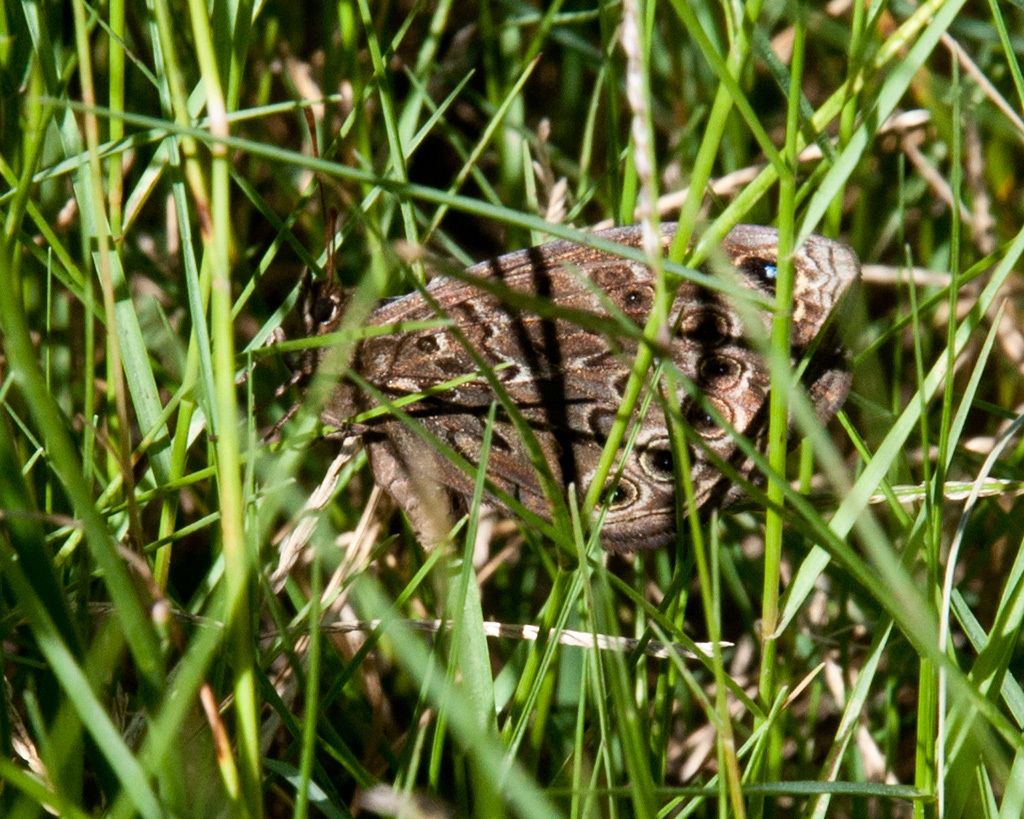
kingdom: Animalia
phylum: Arthropoda
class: Insecta
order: Lepidoptera
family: Nymphalidae
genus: Dira
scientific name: Dira clytus
